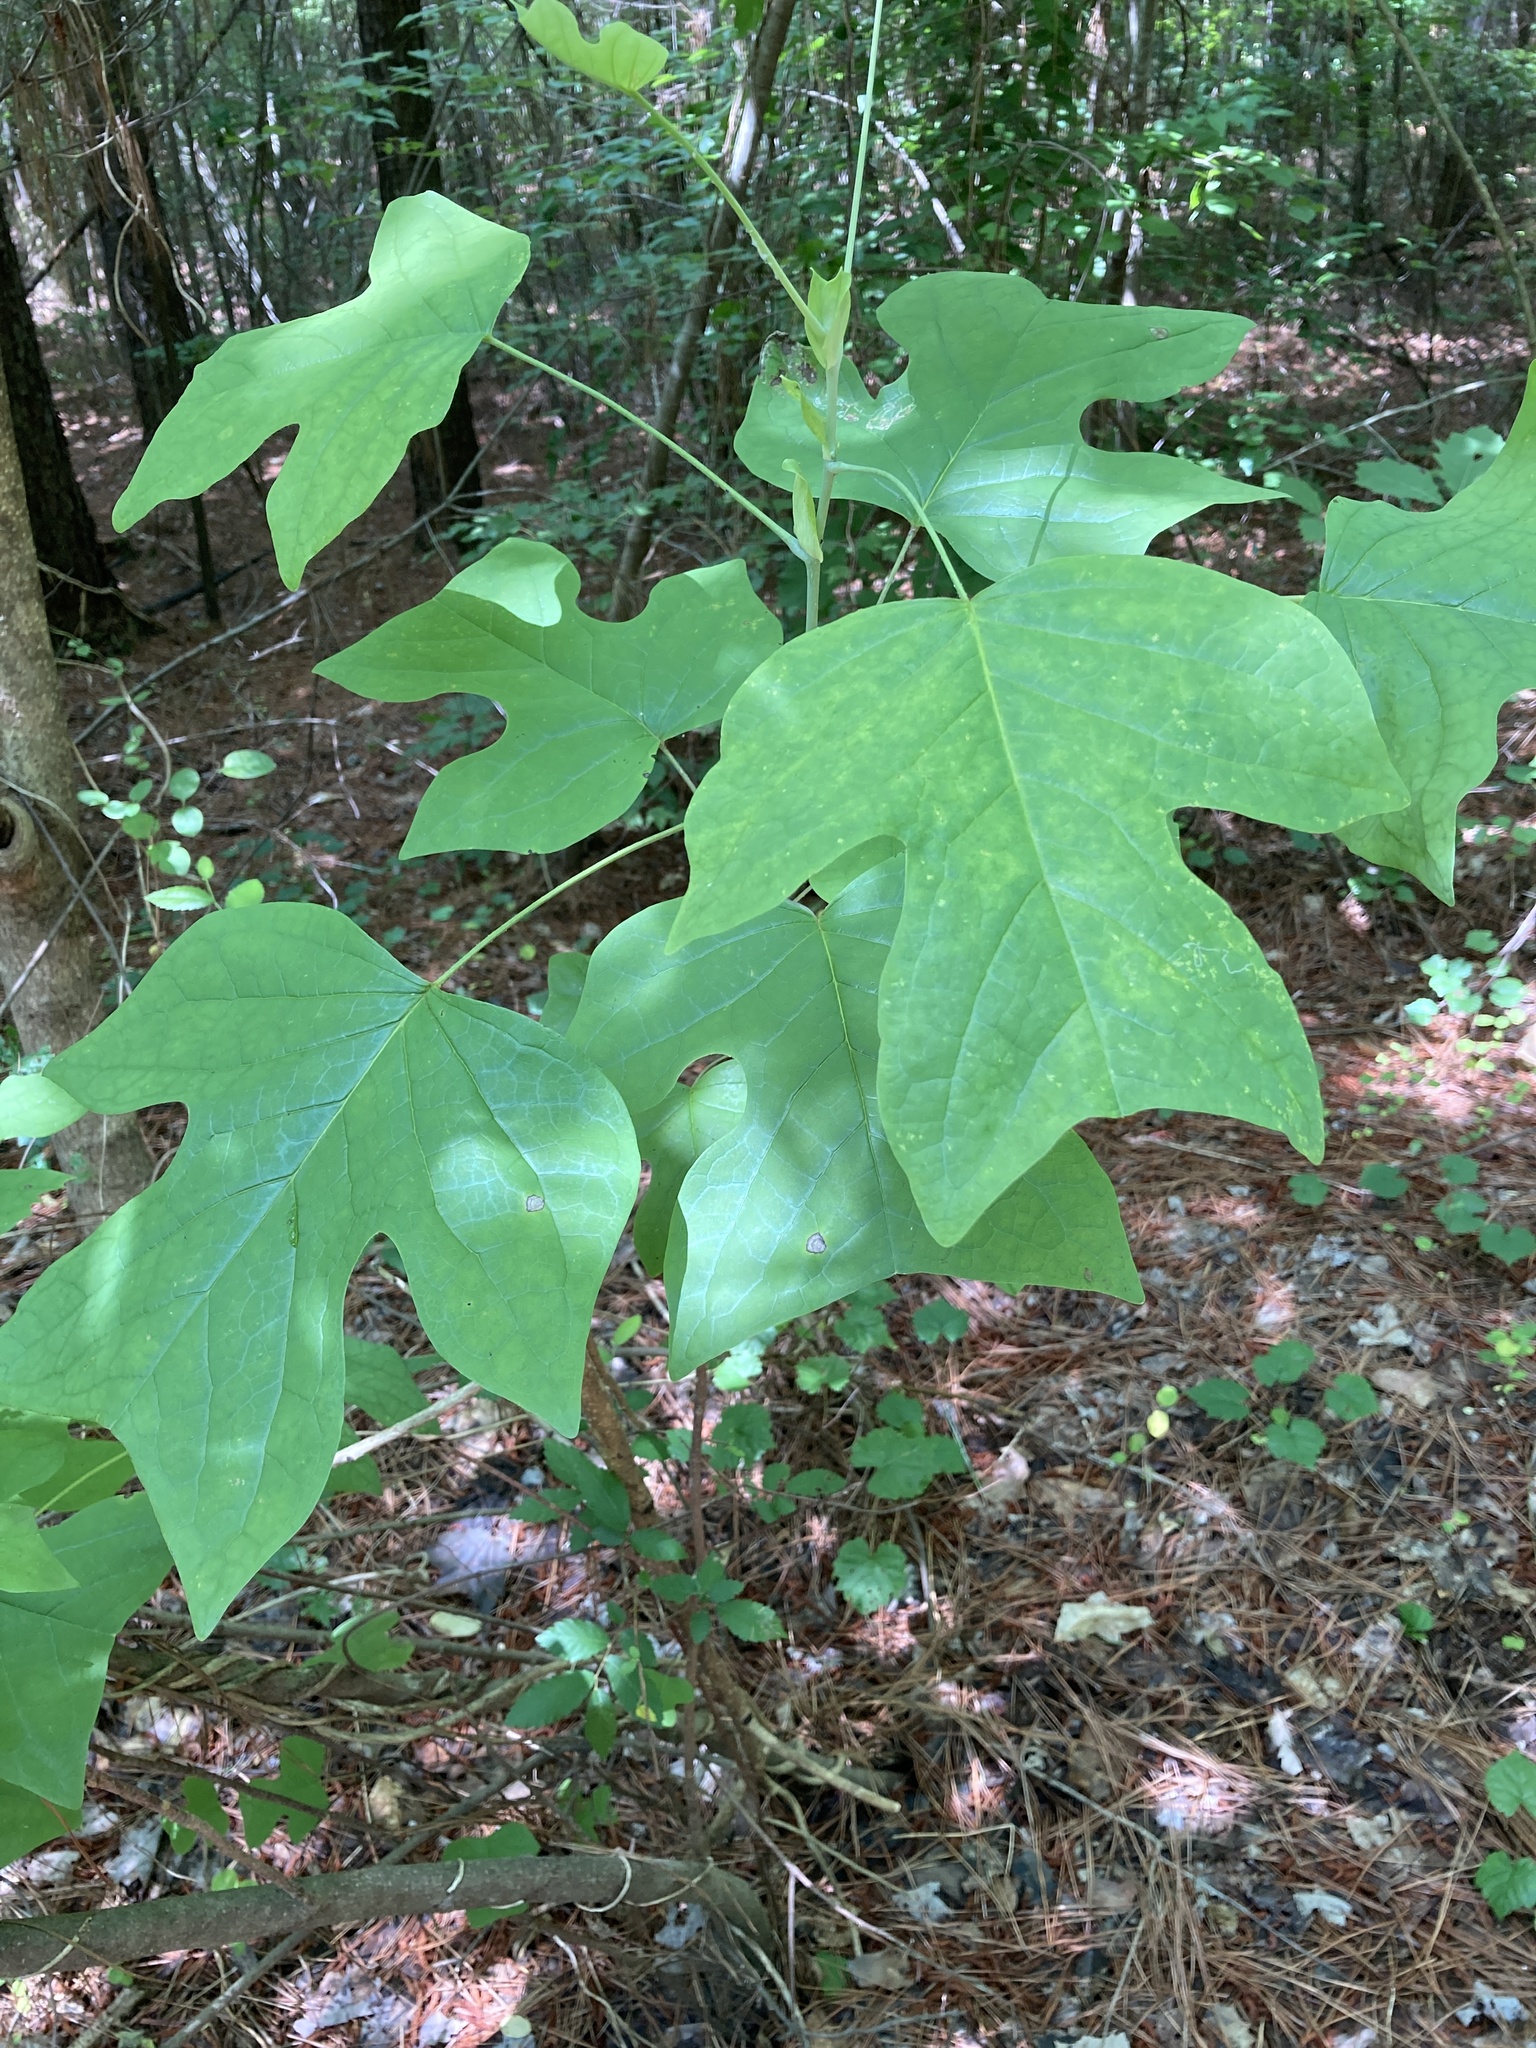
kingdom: Plantae
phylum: Tracheophyta
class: Magnoliopsida
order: Magnoliales
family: Magnoliaceae
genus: Liriodendron
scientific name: Liriodendron tulipifera
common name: Tulip tree
